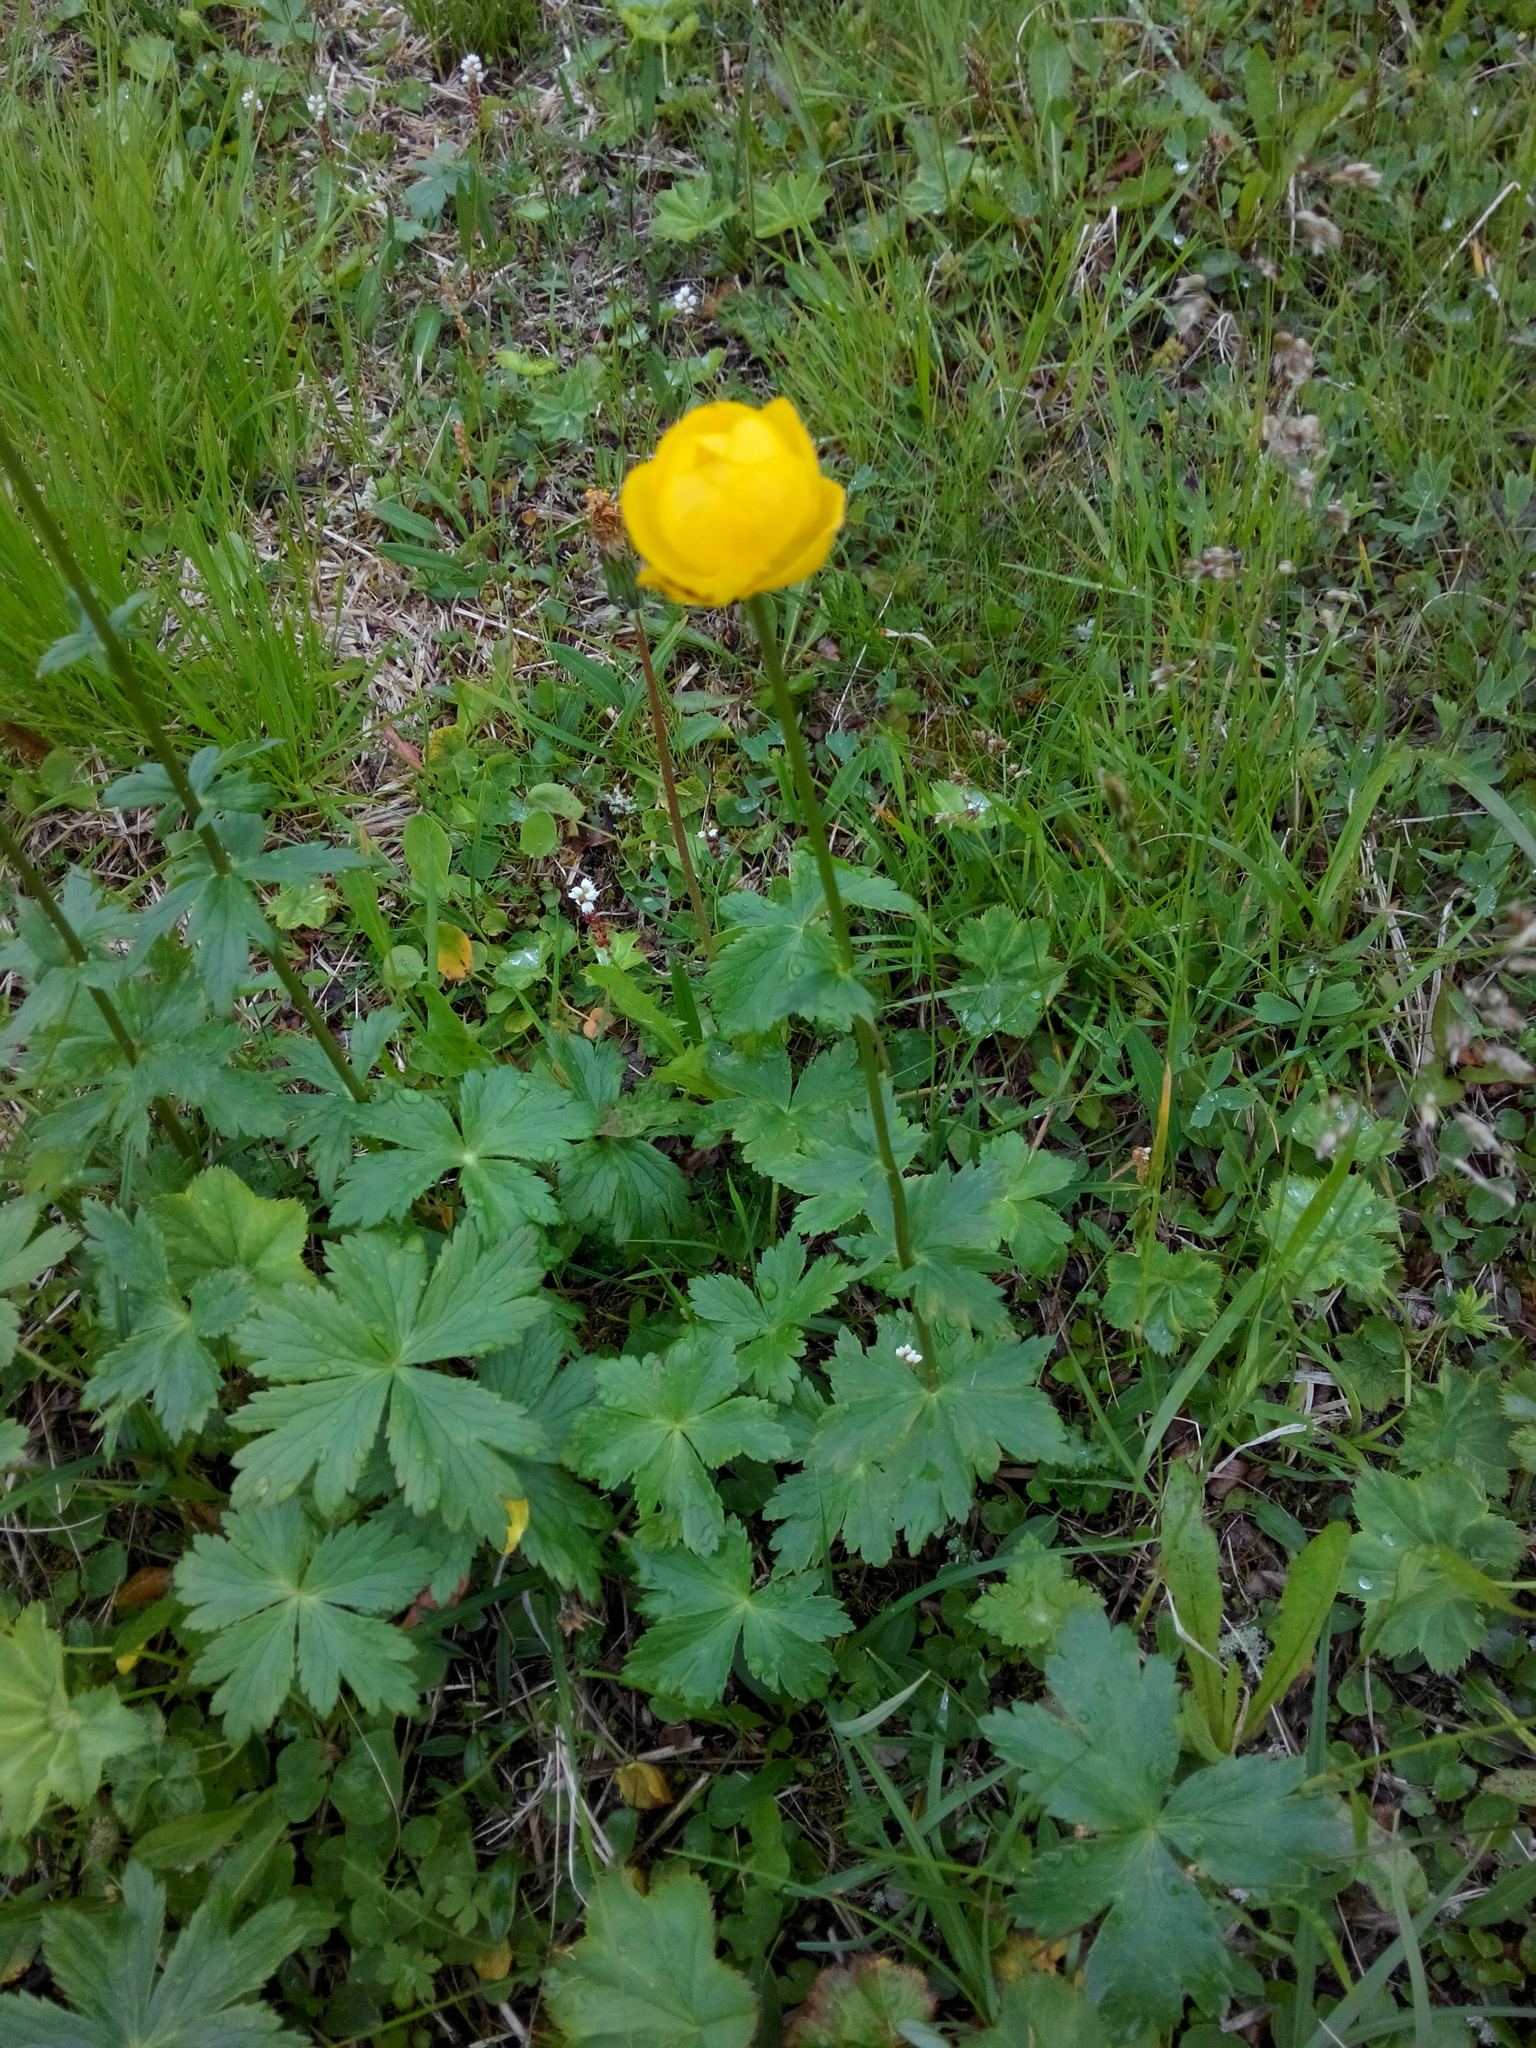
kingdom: Plantae
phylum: Tracheophyta
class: Magnoliopsida
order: Ranunculales
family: Ranunculaceae
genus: Trollius
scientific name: Trollius europaeus
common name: European globeflower
